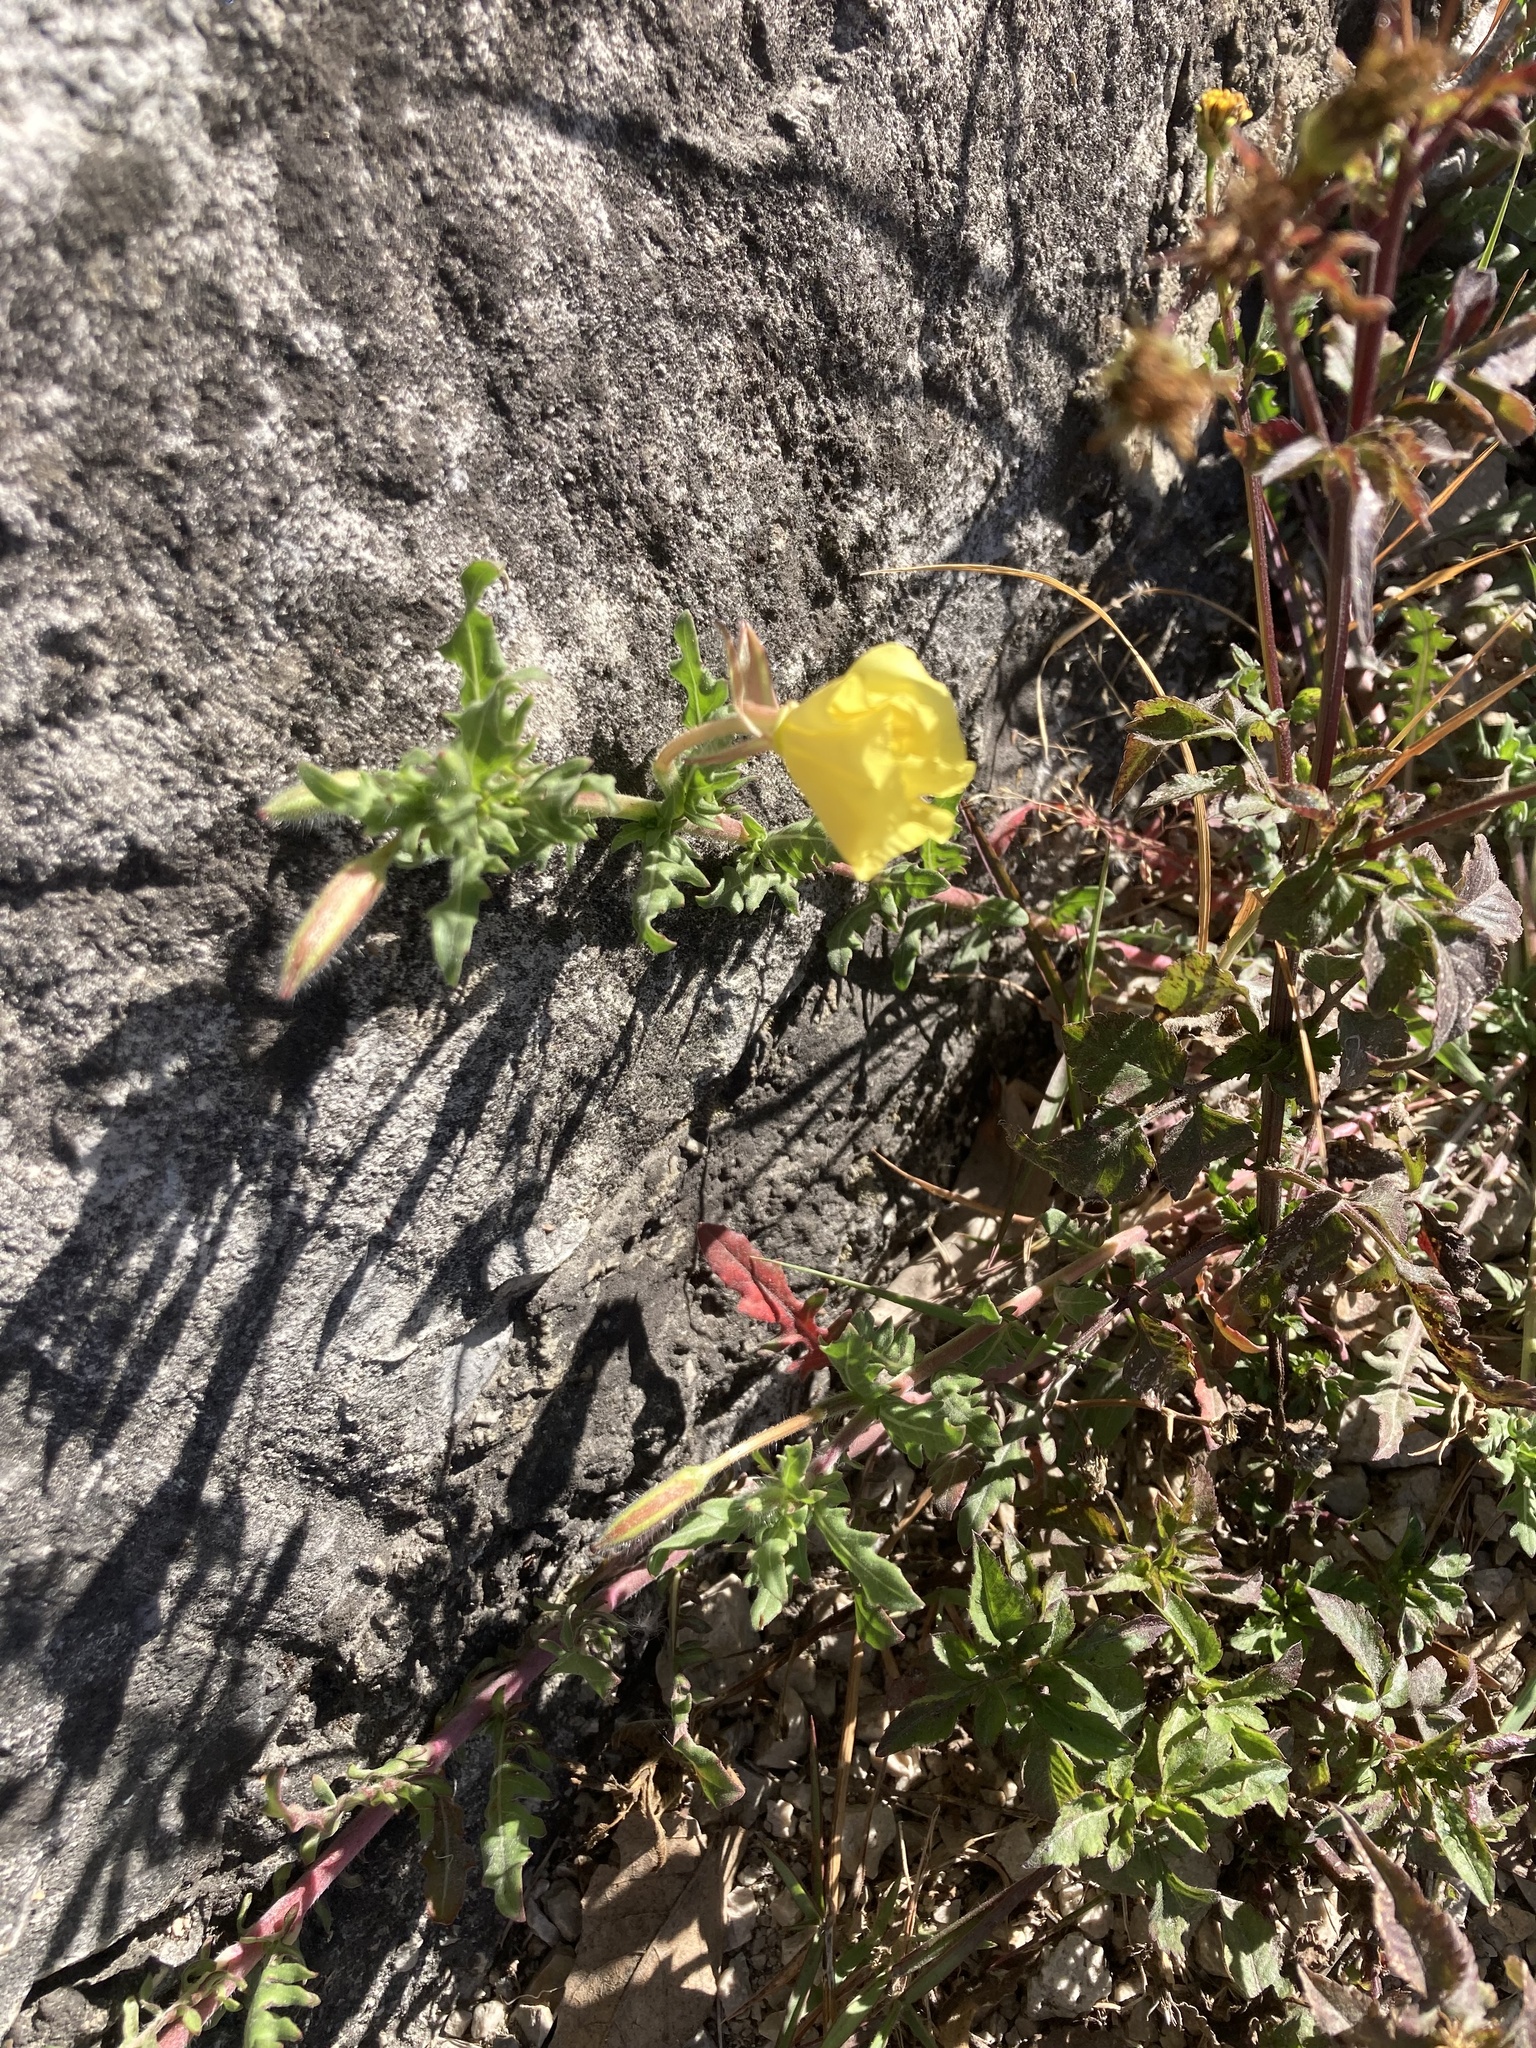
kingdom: Plantae
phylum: Tracheophyta
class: Magnoliopsida
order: Myrtales
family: Onagraceae
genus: Oenothera
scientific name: Oenothera pubescens
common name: South american evening-primrose
